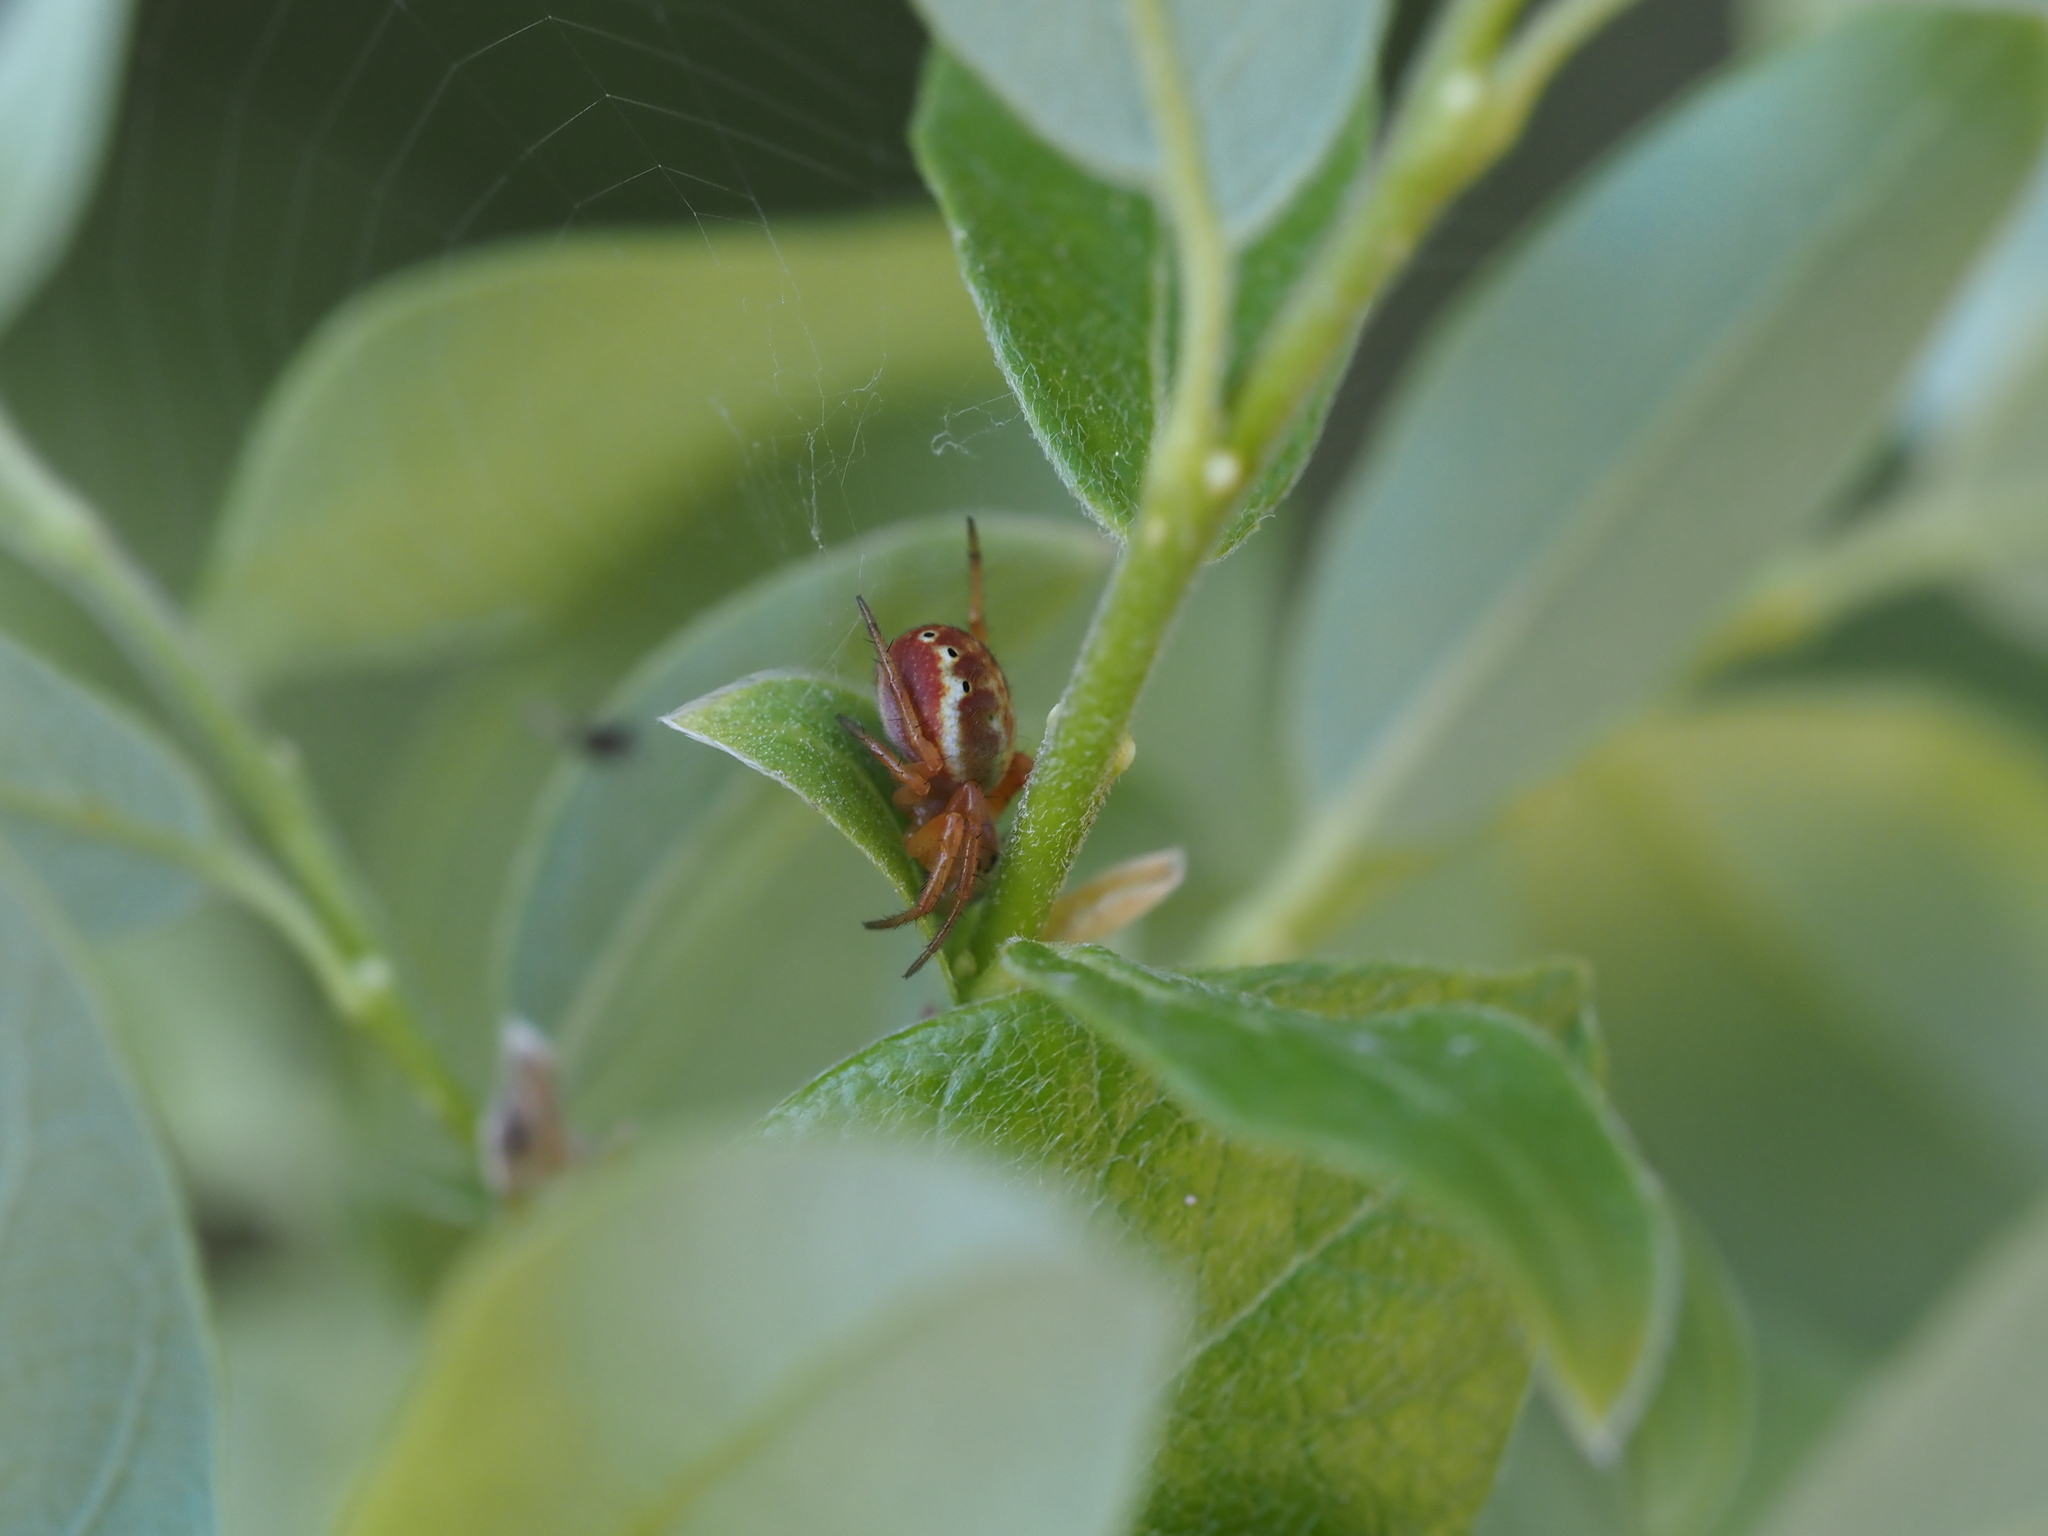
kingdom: Animalia
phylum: Arthropoda
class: Arachnida
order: Araneae
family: Araneidae
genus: Araniella
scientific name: Araniella displicata
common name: Sixspotted orb weaver
